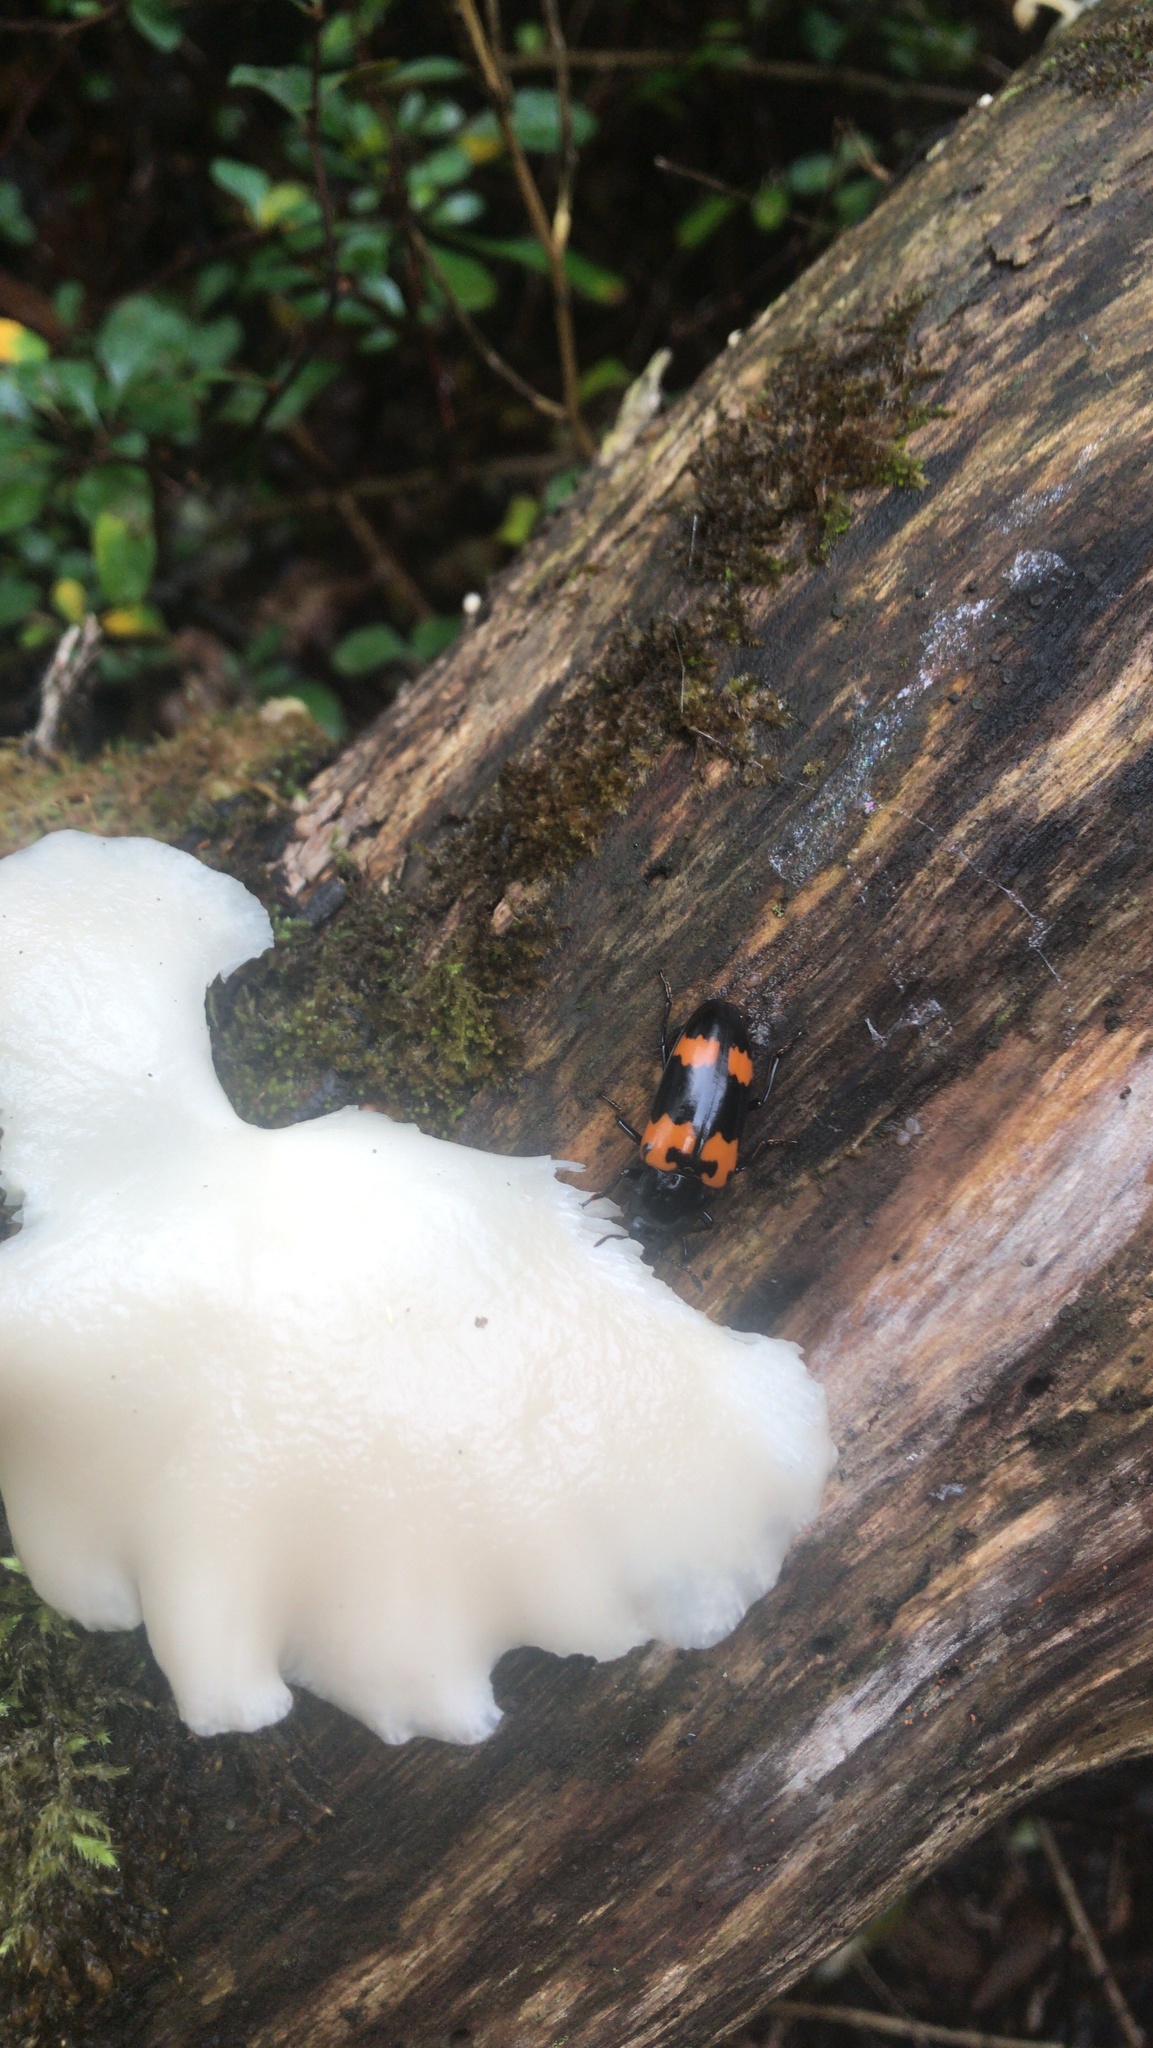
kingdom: Animalia
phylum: Arthropoda
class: Insecta
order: Coleoptera
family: Erotylidae
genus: Megalodacne
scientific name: Megalodacne heros
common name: Pleasing fungus beetle
